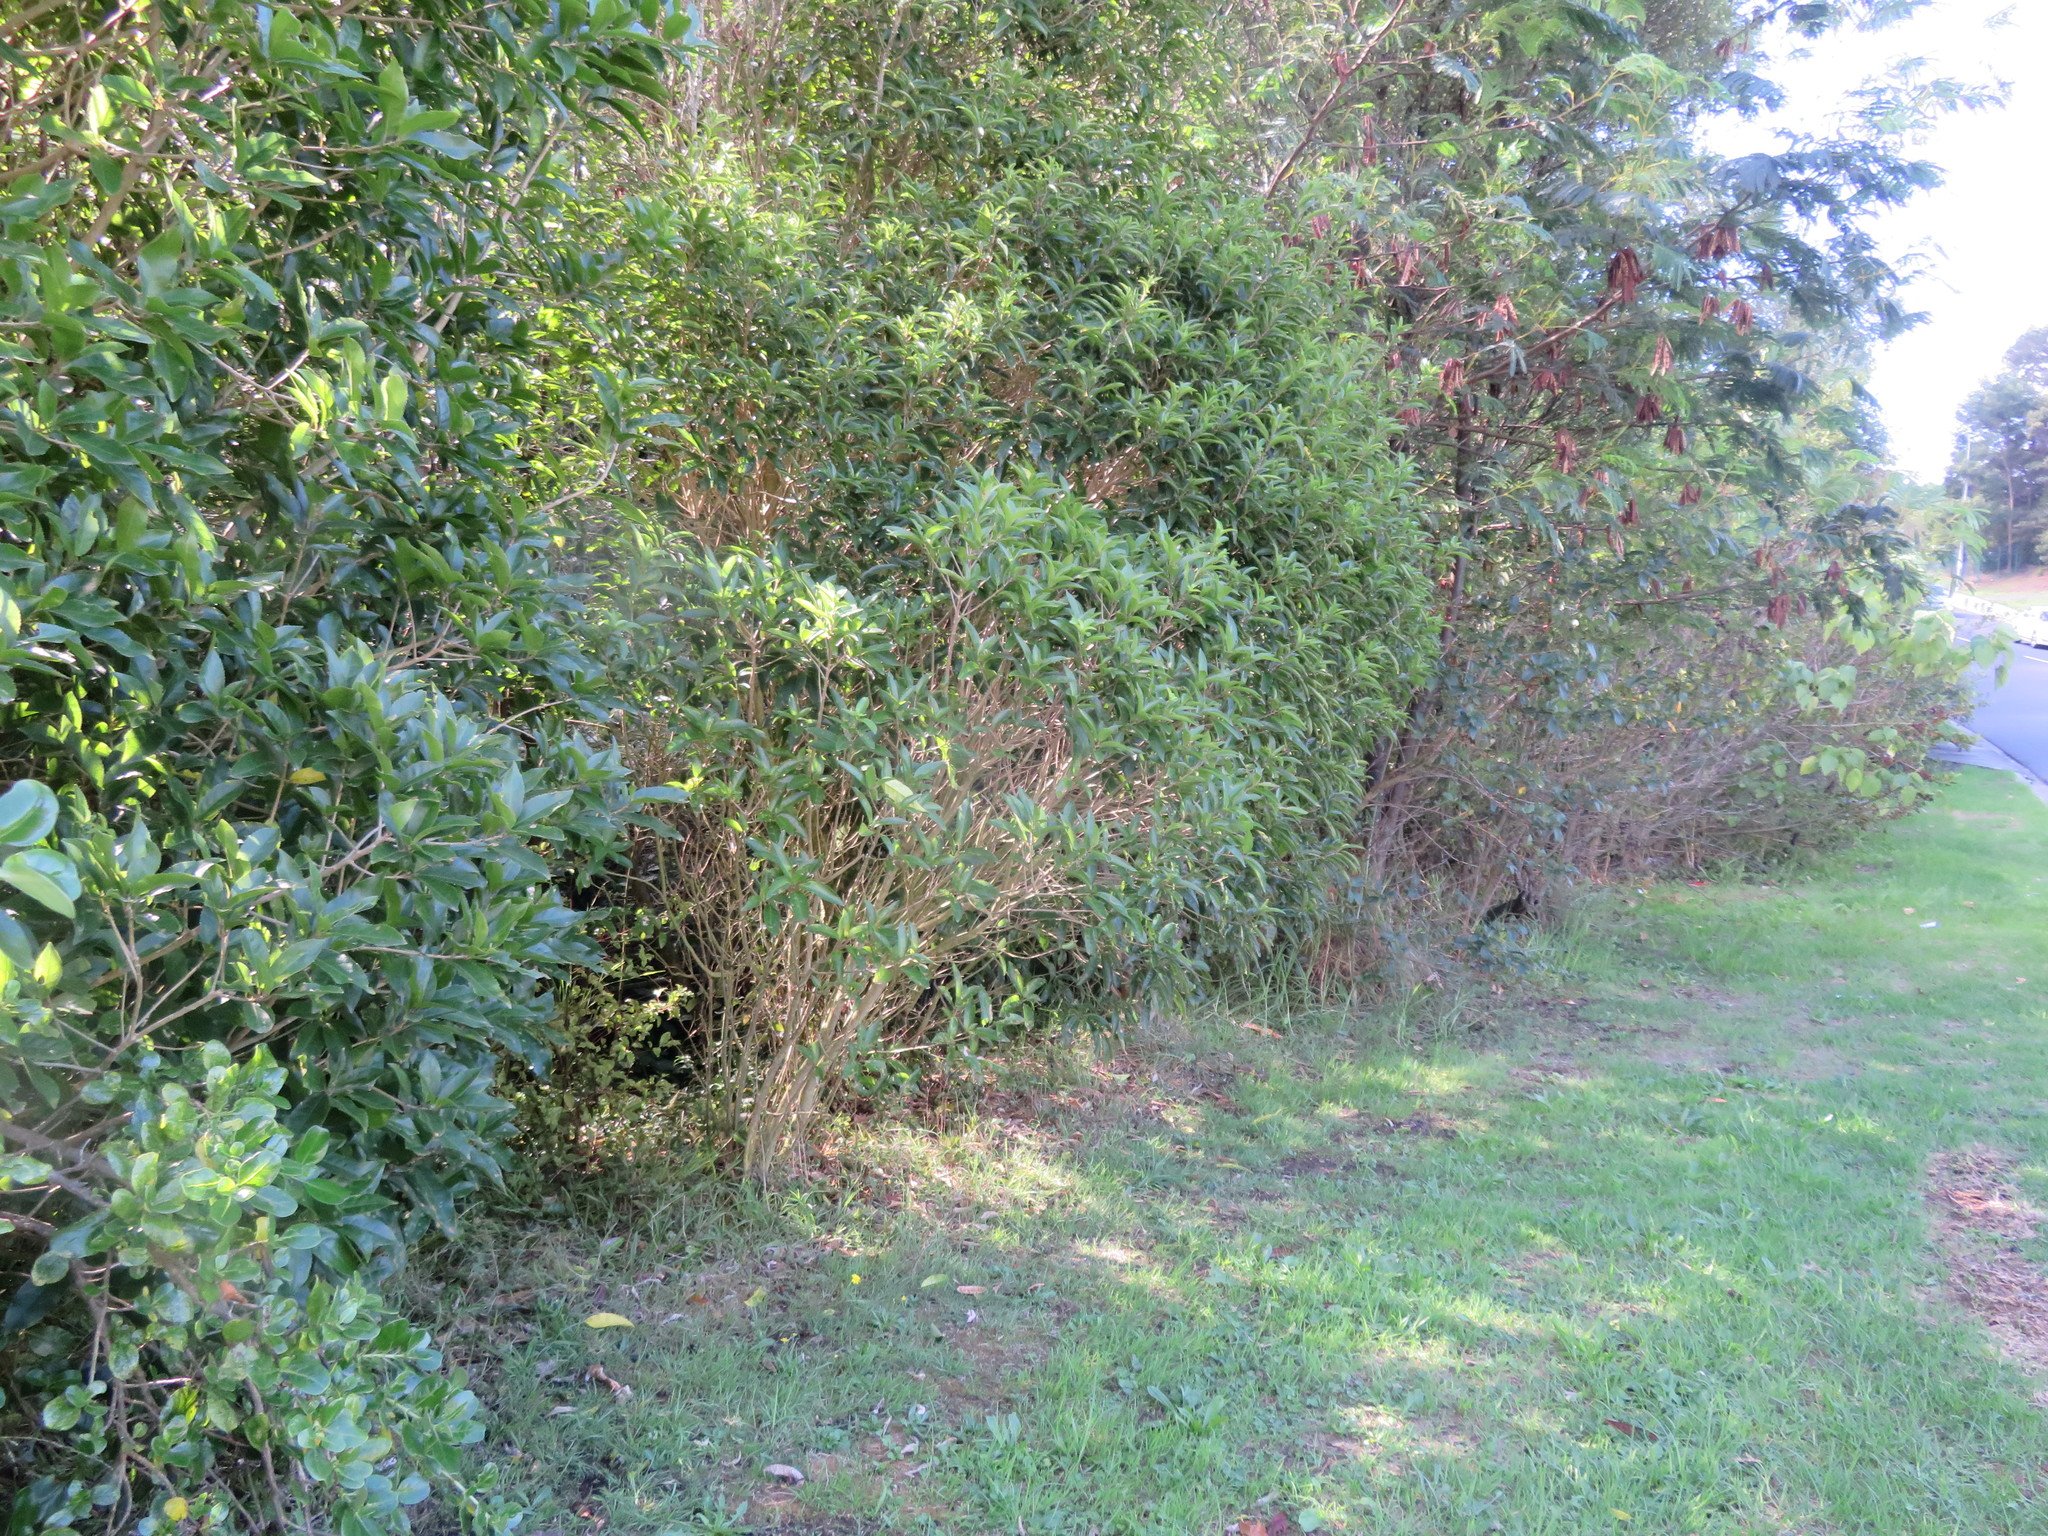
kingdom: Plantae
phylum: Tracheophyta
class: Magnoliopsida
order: Fabales
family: Fabaceae
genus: Paraserianthes
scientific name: Paraserianthes lophantha
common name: Plume albizia
